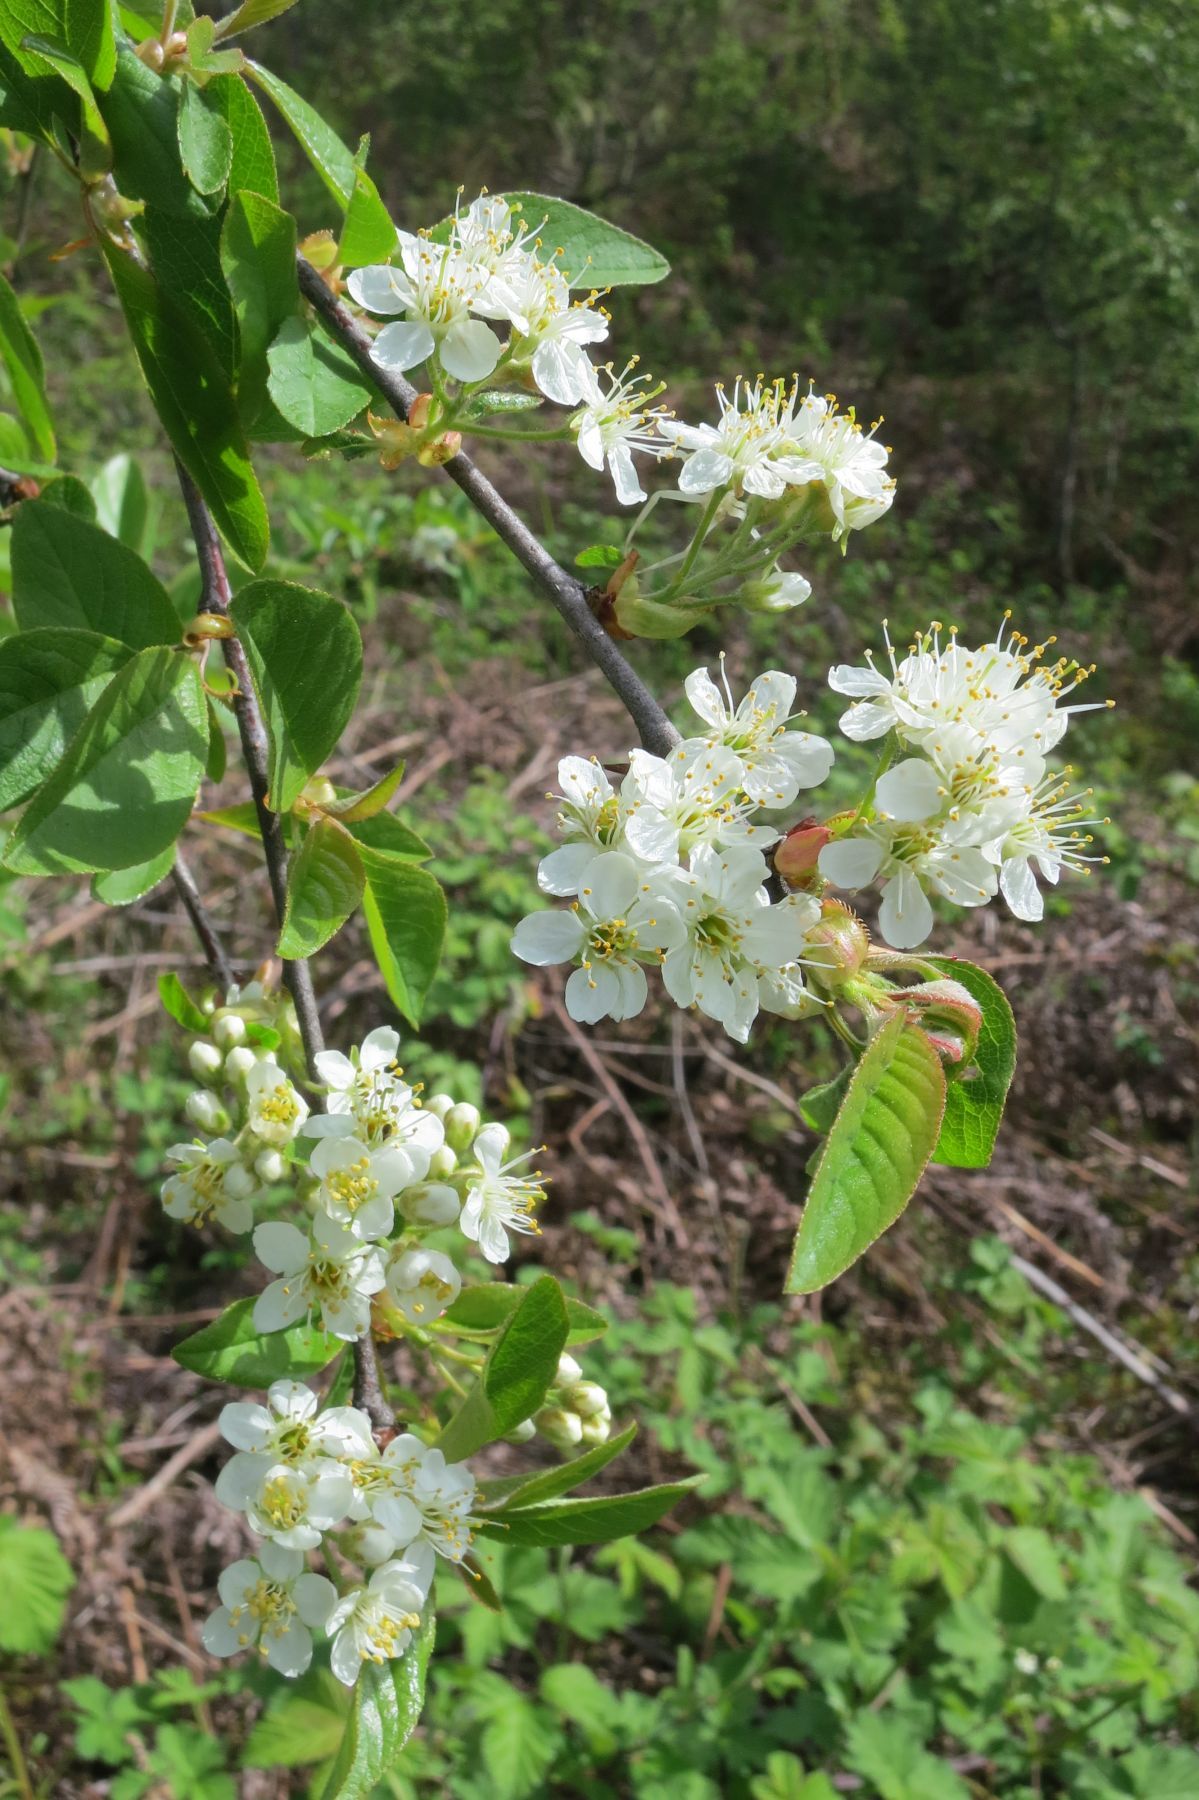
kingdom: Plantae
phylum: Tracheophyta
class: Magnoliopsida
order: Rosales
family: Rosaceae
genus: Prunus
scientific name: Prunus emarginata
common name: Bitter cherry
